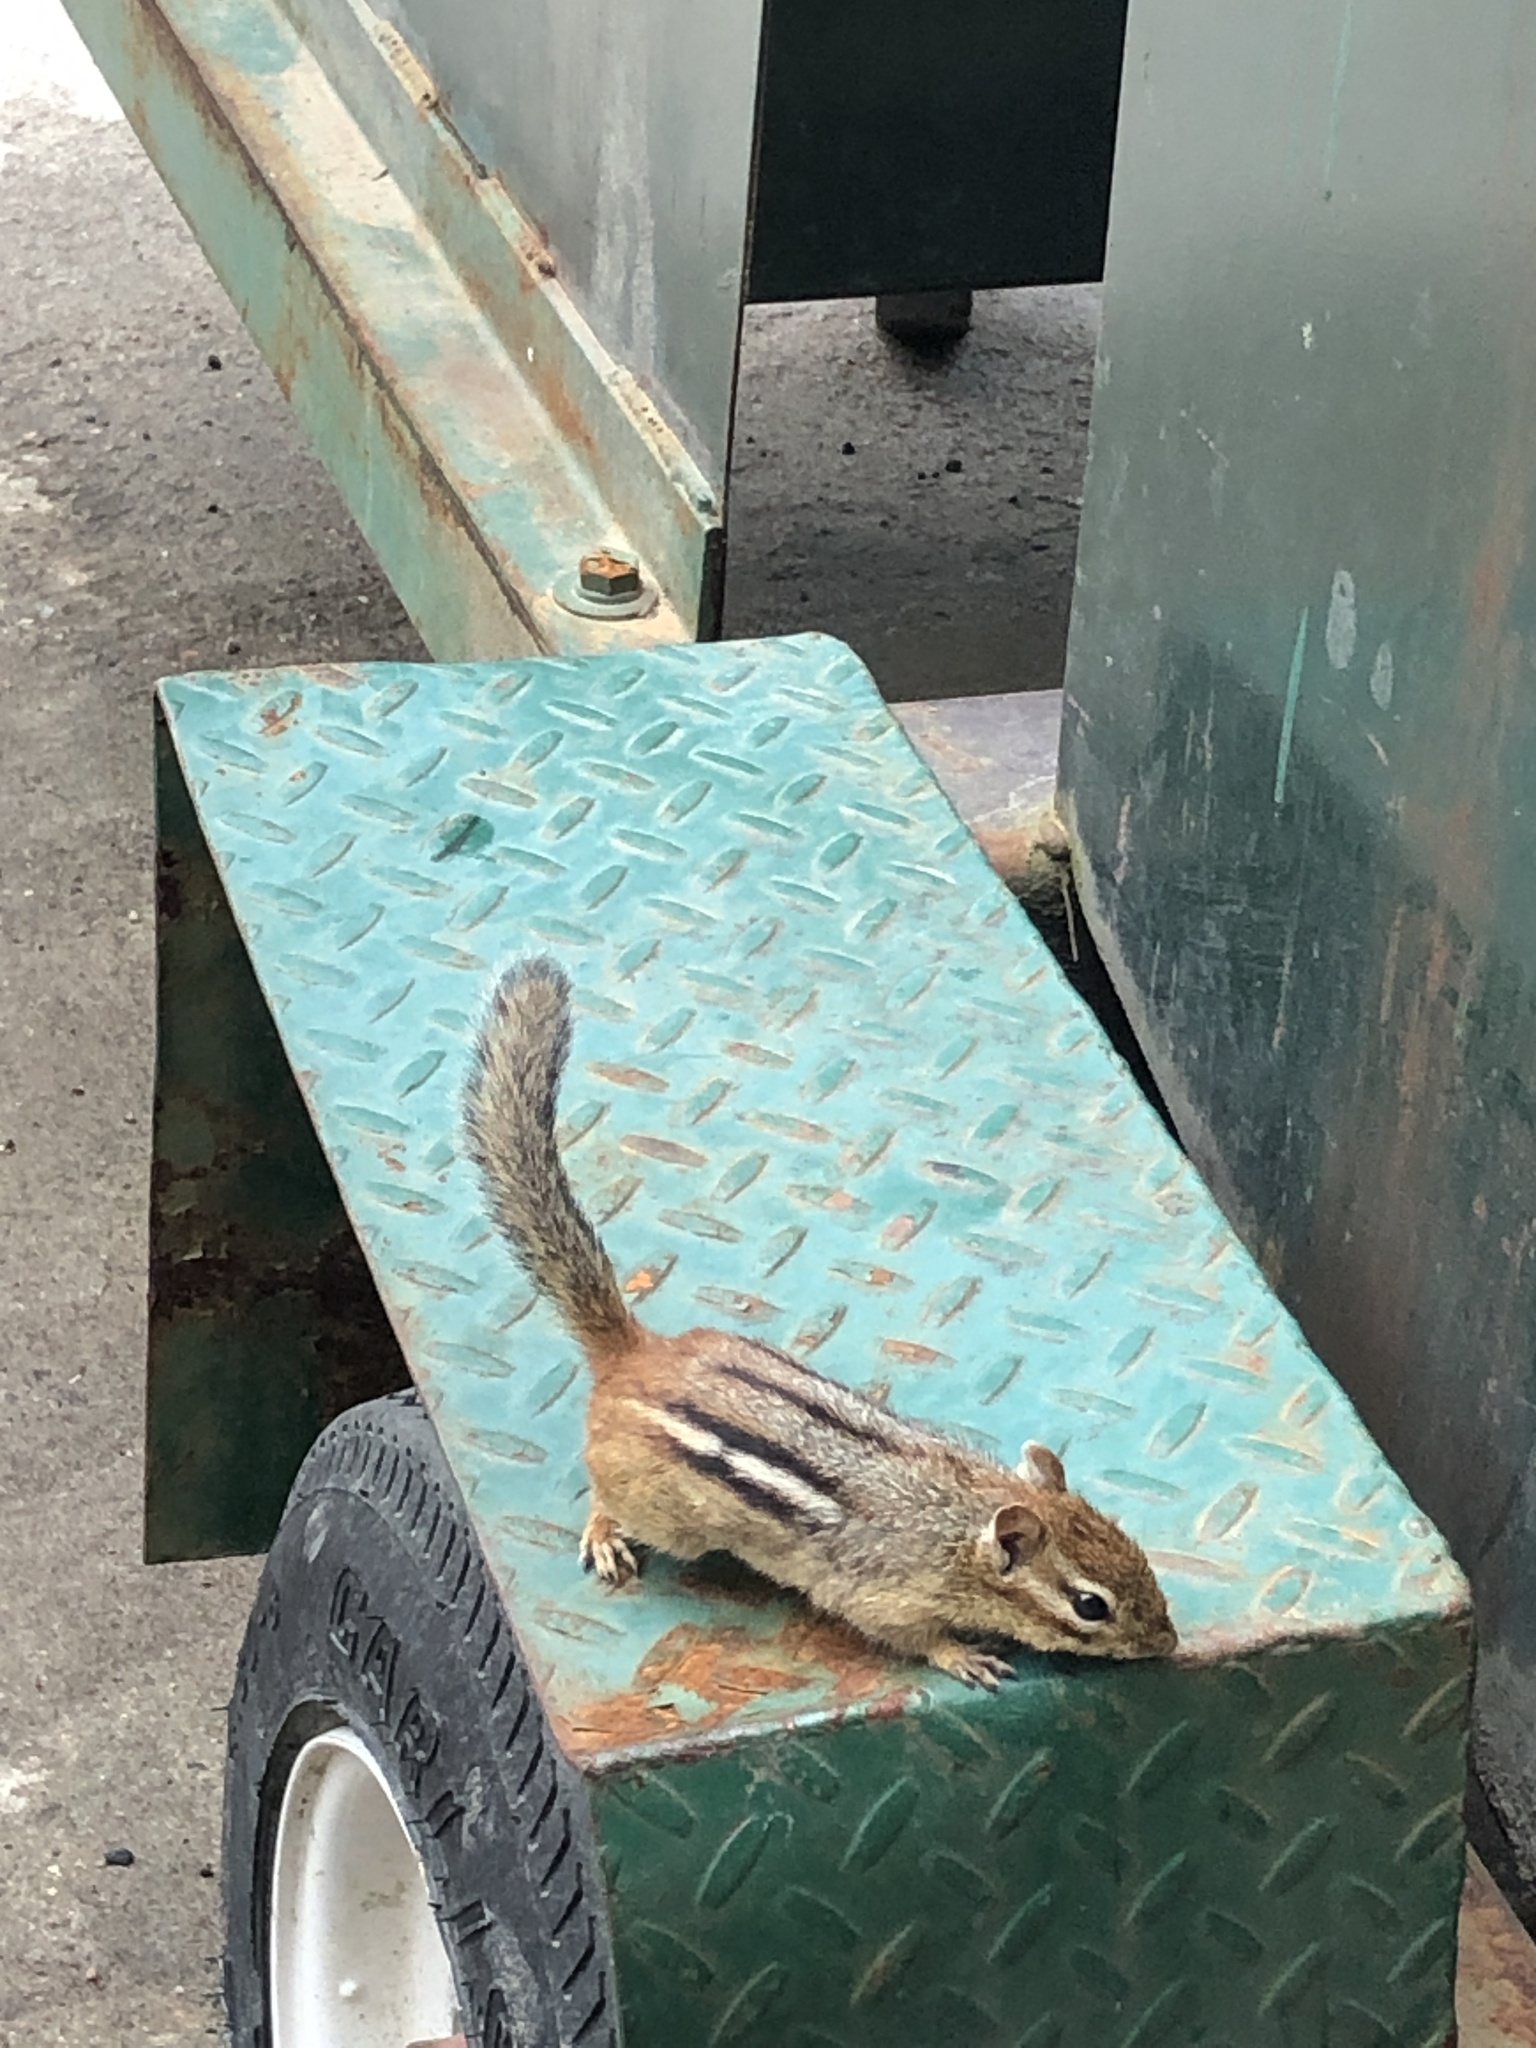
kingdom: Animalia
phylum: Chordata
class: Mammalia
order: Rodentia
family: Sciuridae
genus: Tamias
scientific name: Tamias striatus
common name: Eastern chipmunk
